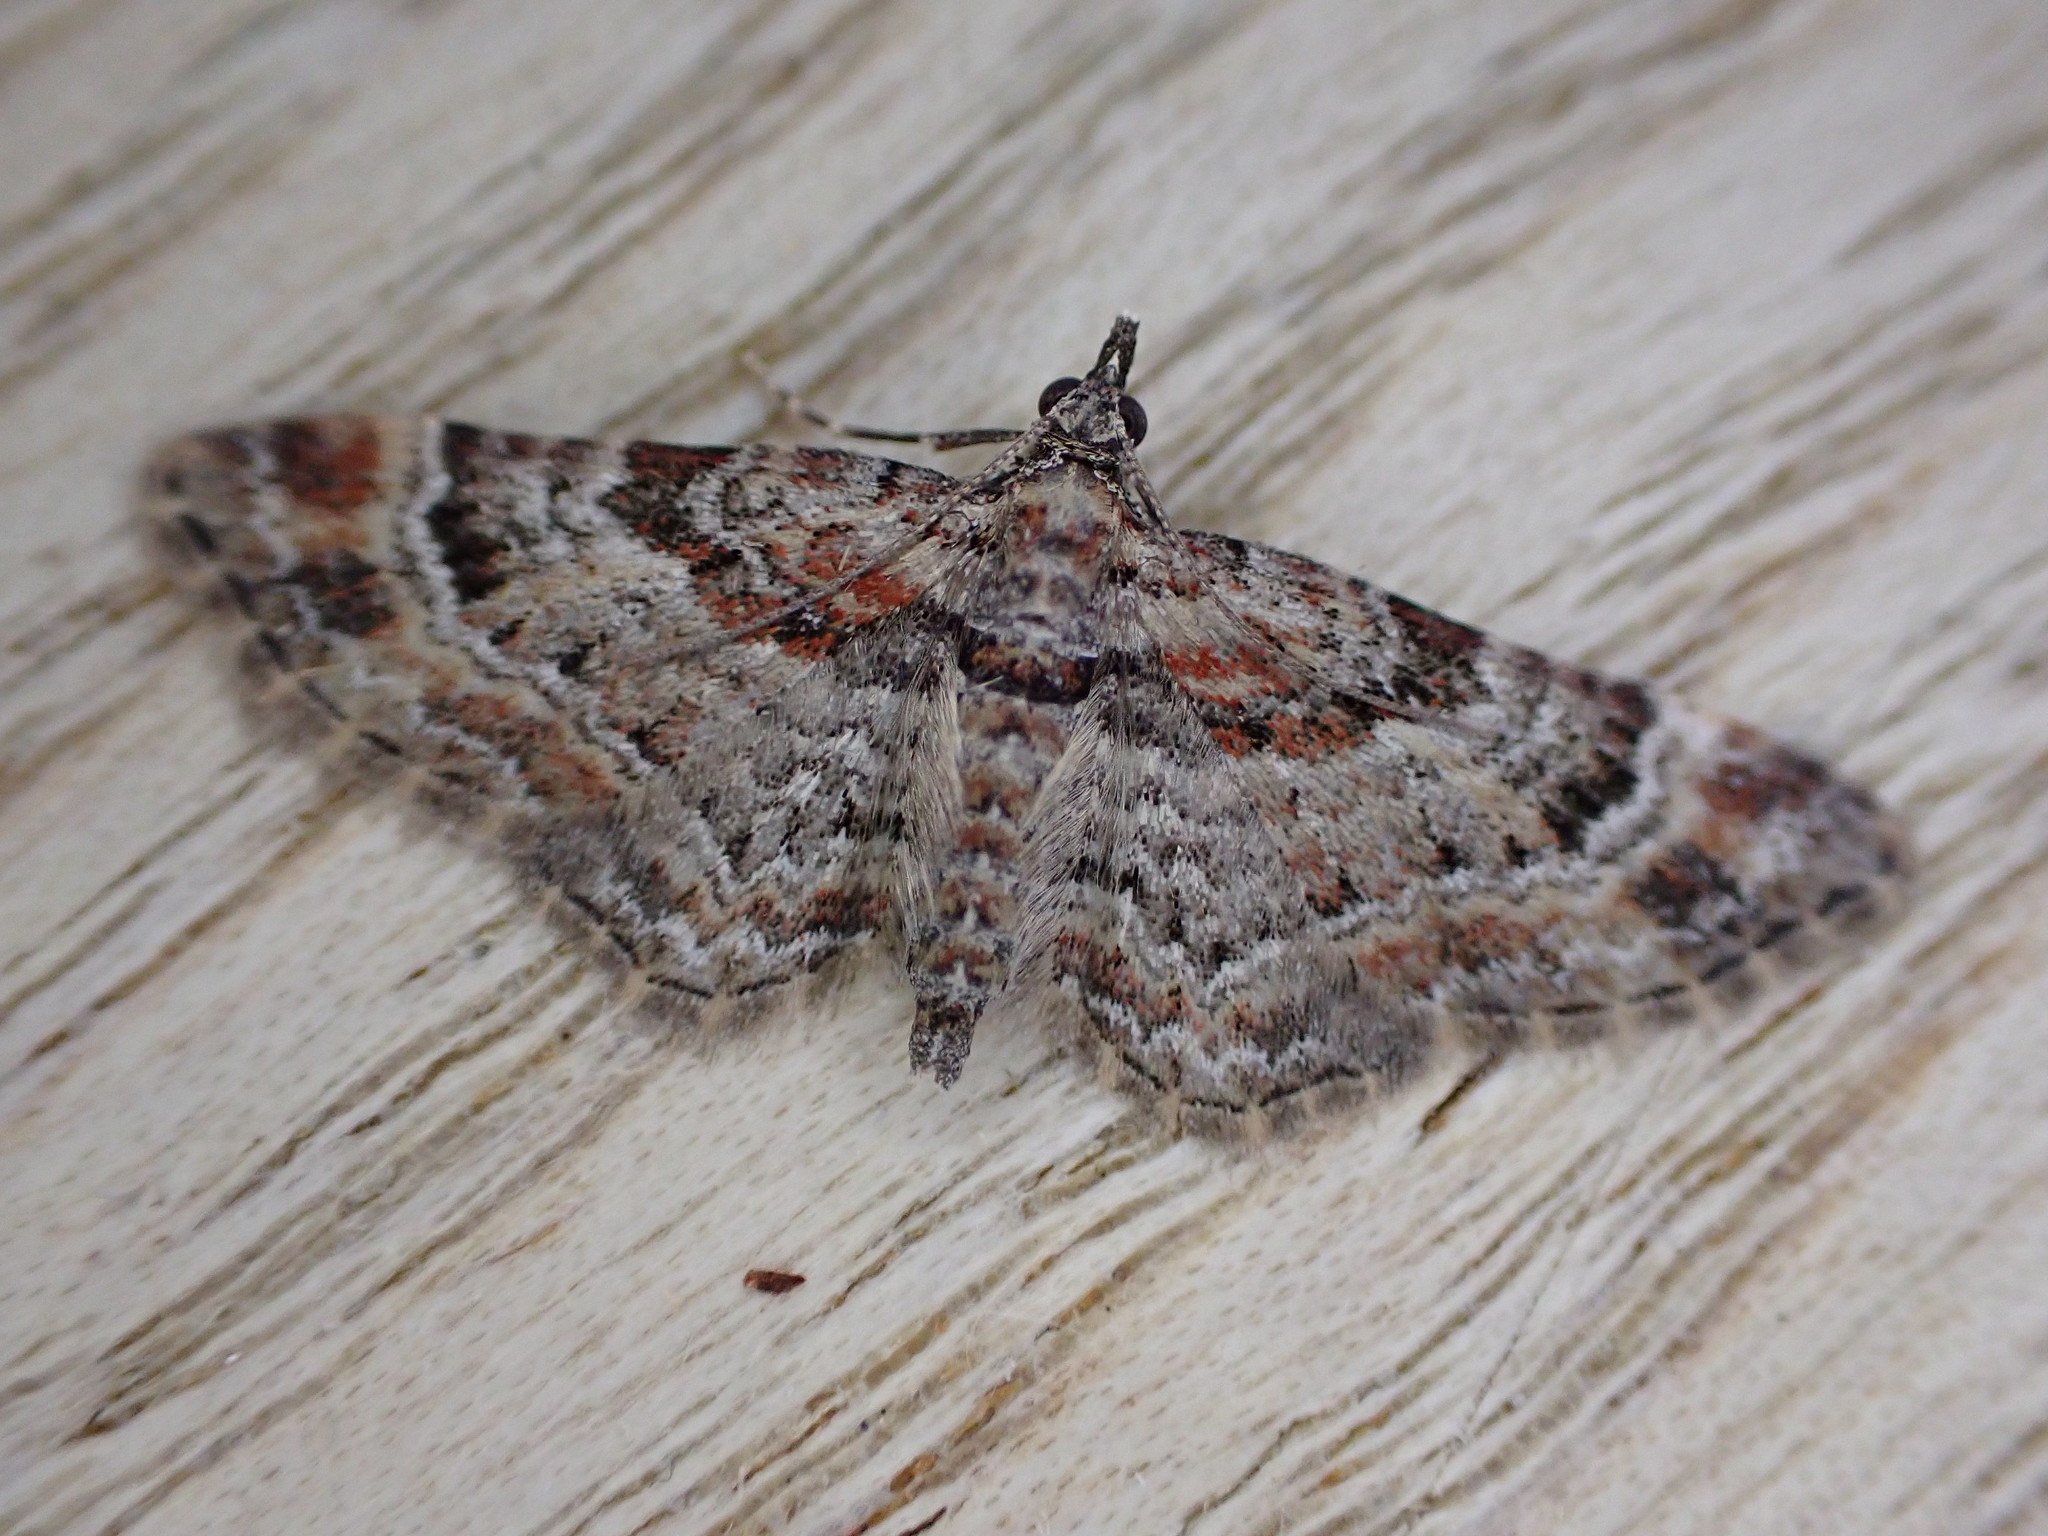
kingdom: Animalia
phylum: Arthropoda
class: Insecta
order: Lepidoptera
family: Geometridae
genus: Gymnoscelis
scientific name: Gymnoscelis rufifasciata
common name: Double-striped pug
